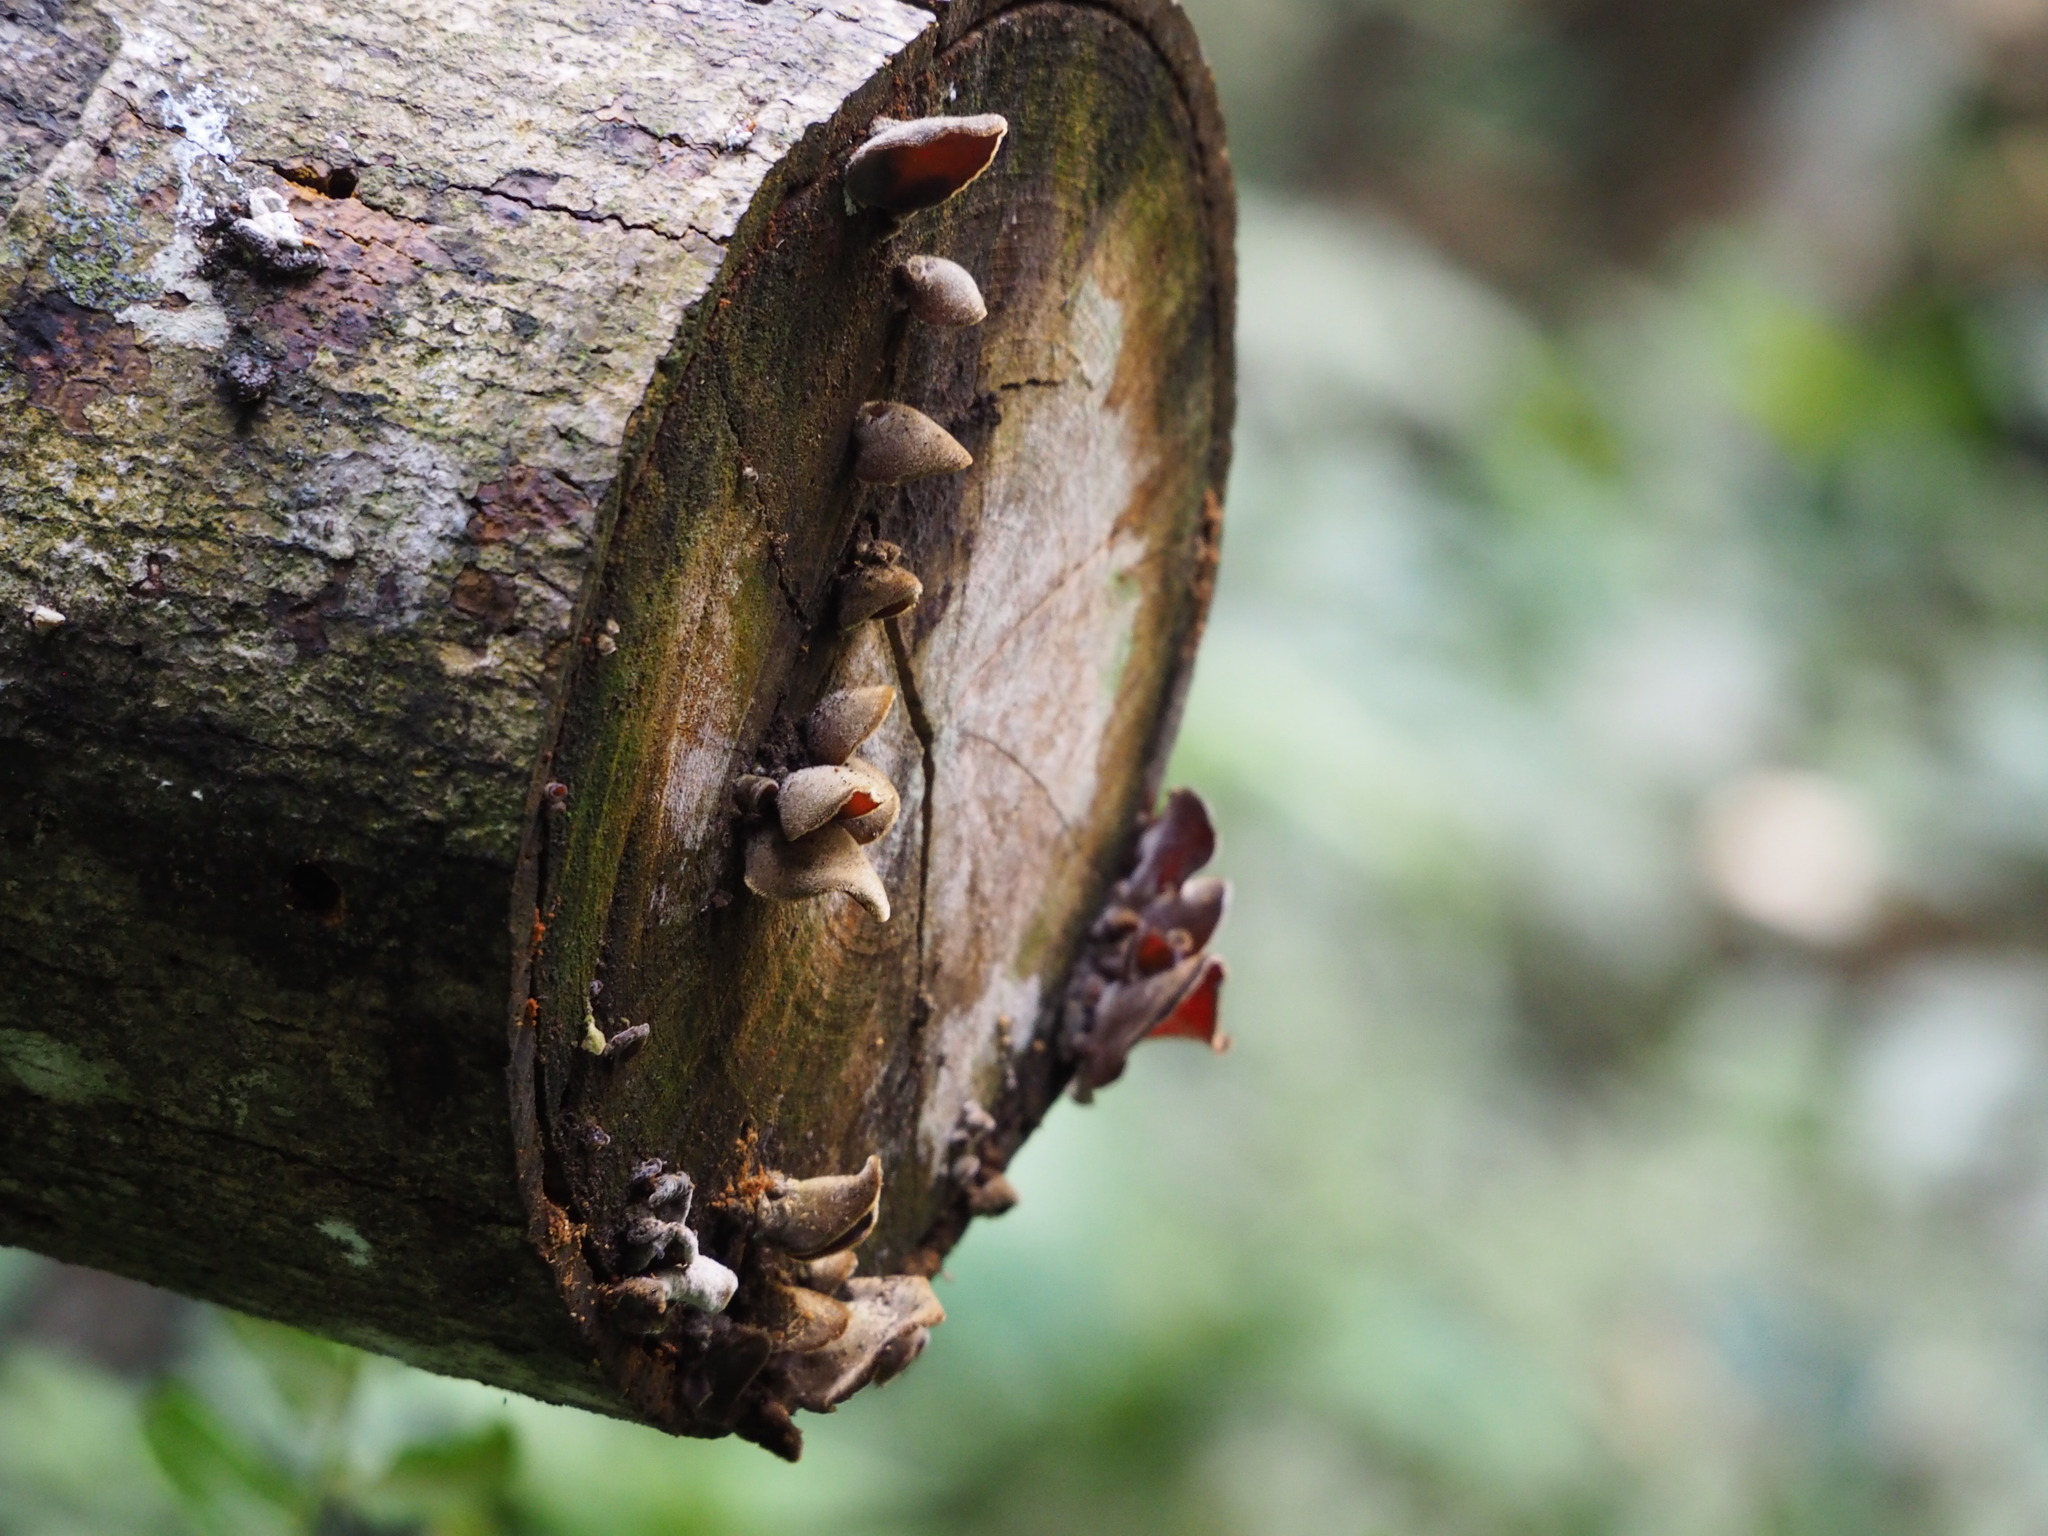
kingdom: Fungi
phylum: Basidiomycota
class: Agaricomycetes
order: Auriculariales
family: Auriculariaceae
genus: Auricularia
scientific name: Auricularia nigricans
